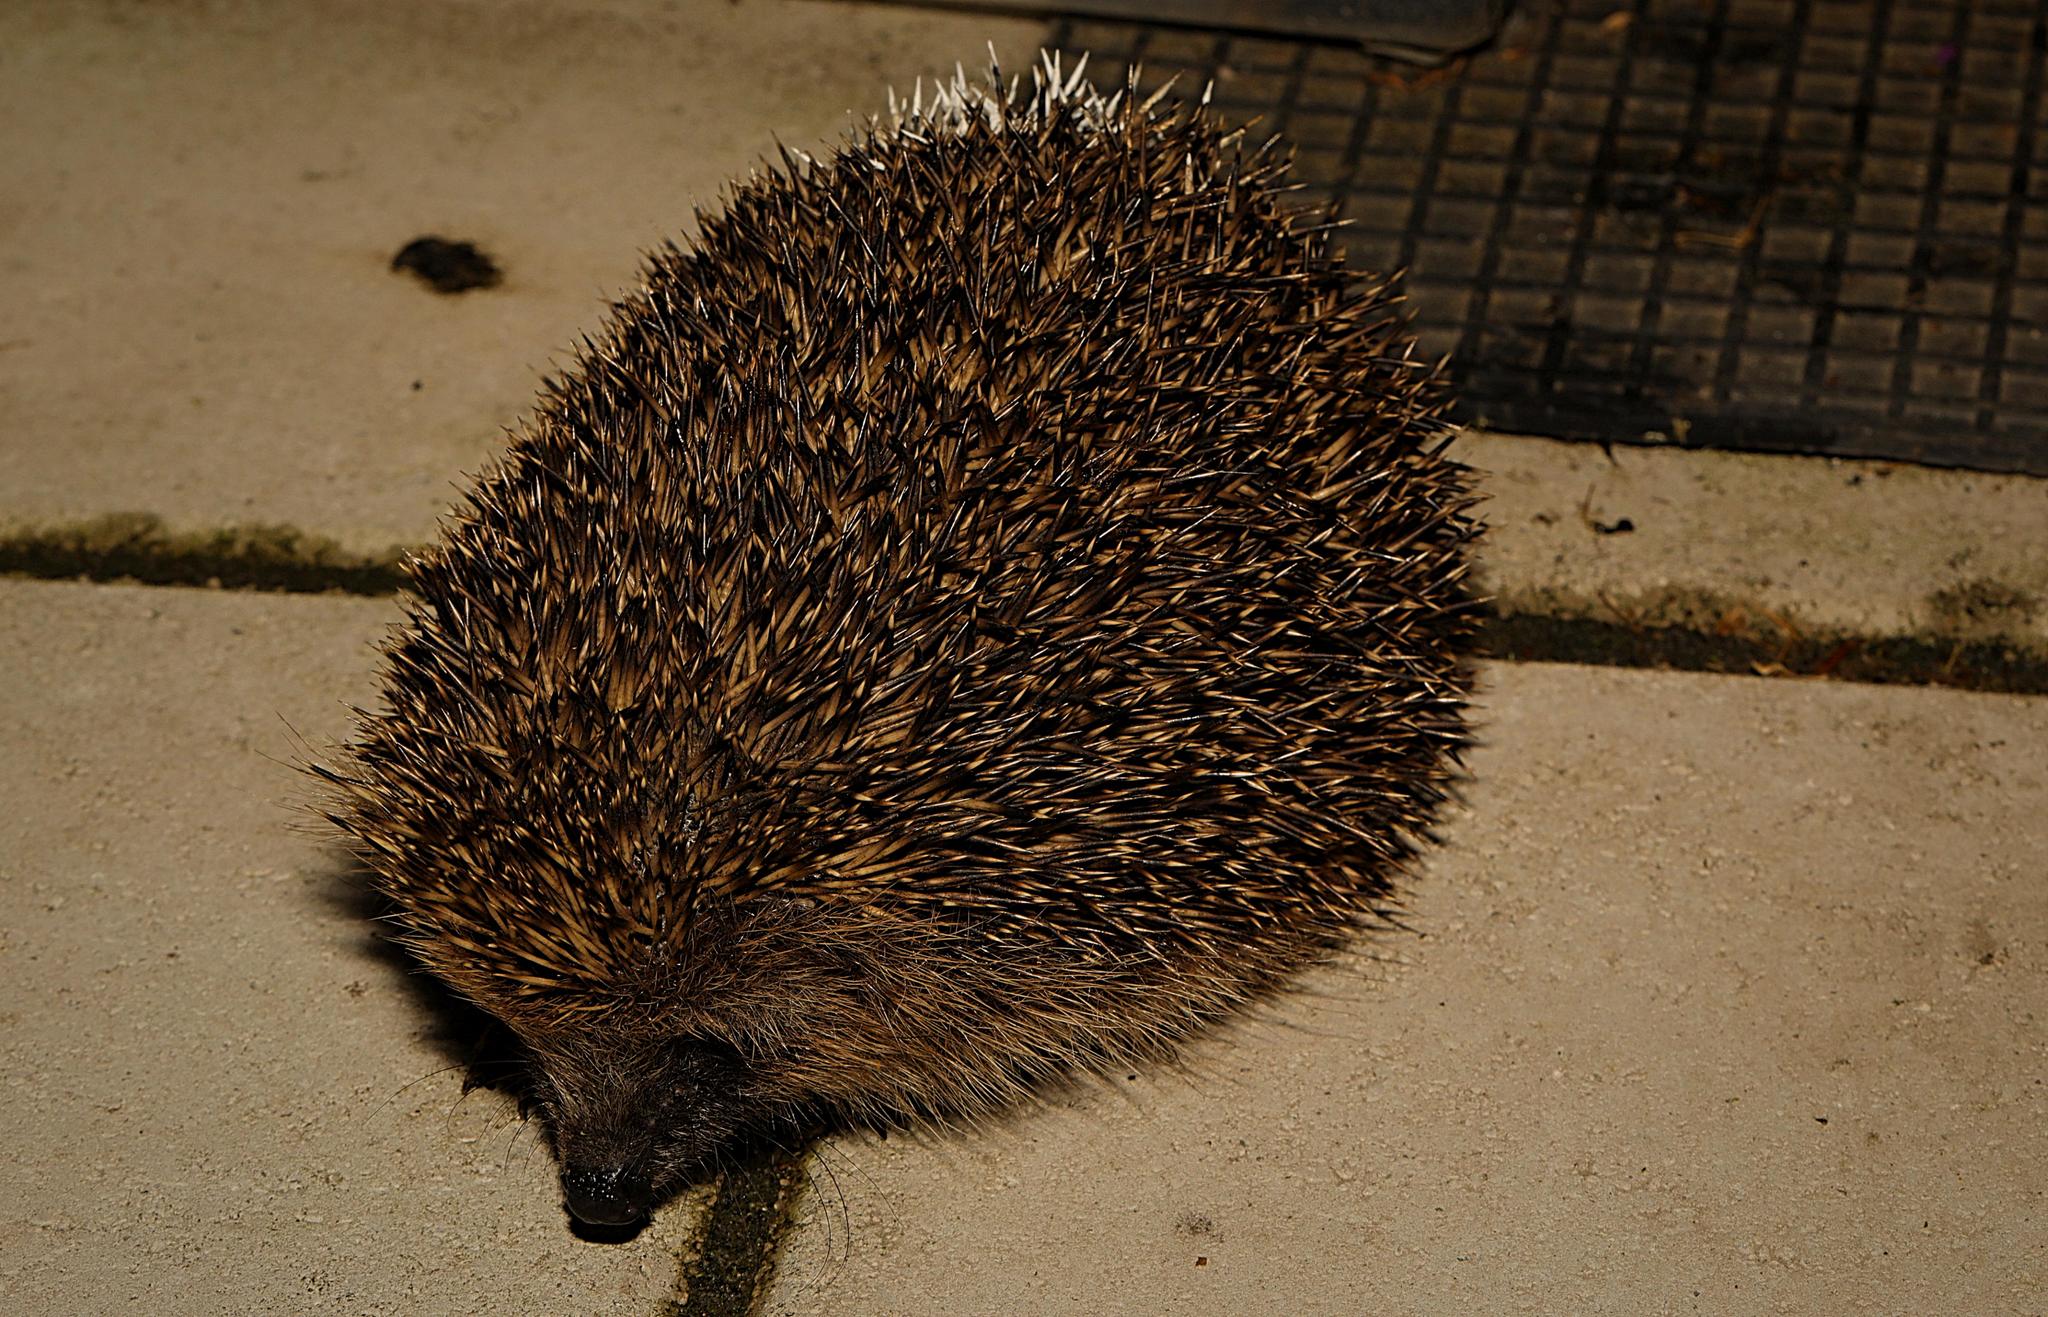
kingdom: Animalia
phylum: Chordata
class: Mammalia
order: Erinaceomorpha
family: Erinaceidae
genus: Erinaceus
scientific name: Erinaceus europaeus
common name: West european hedgehog
